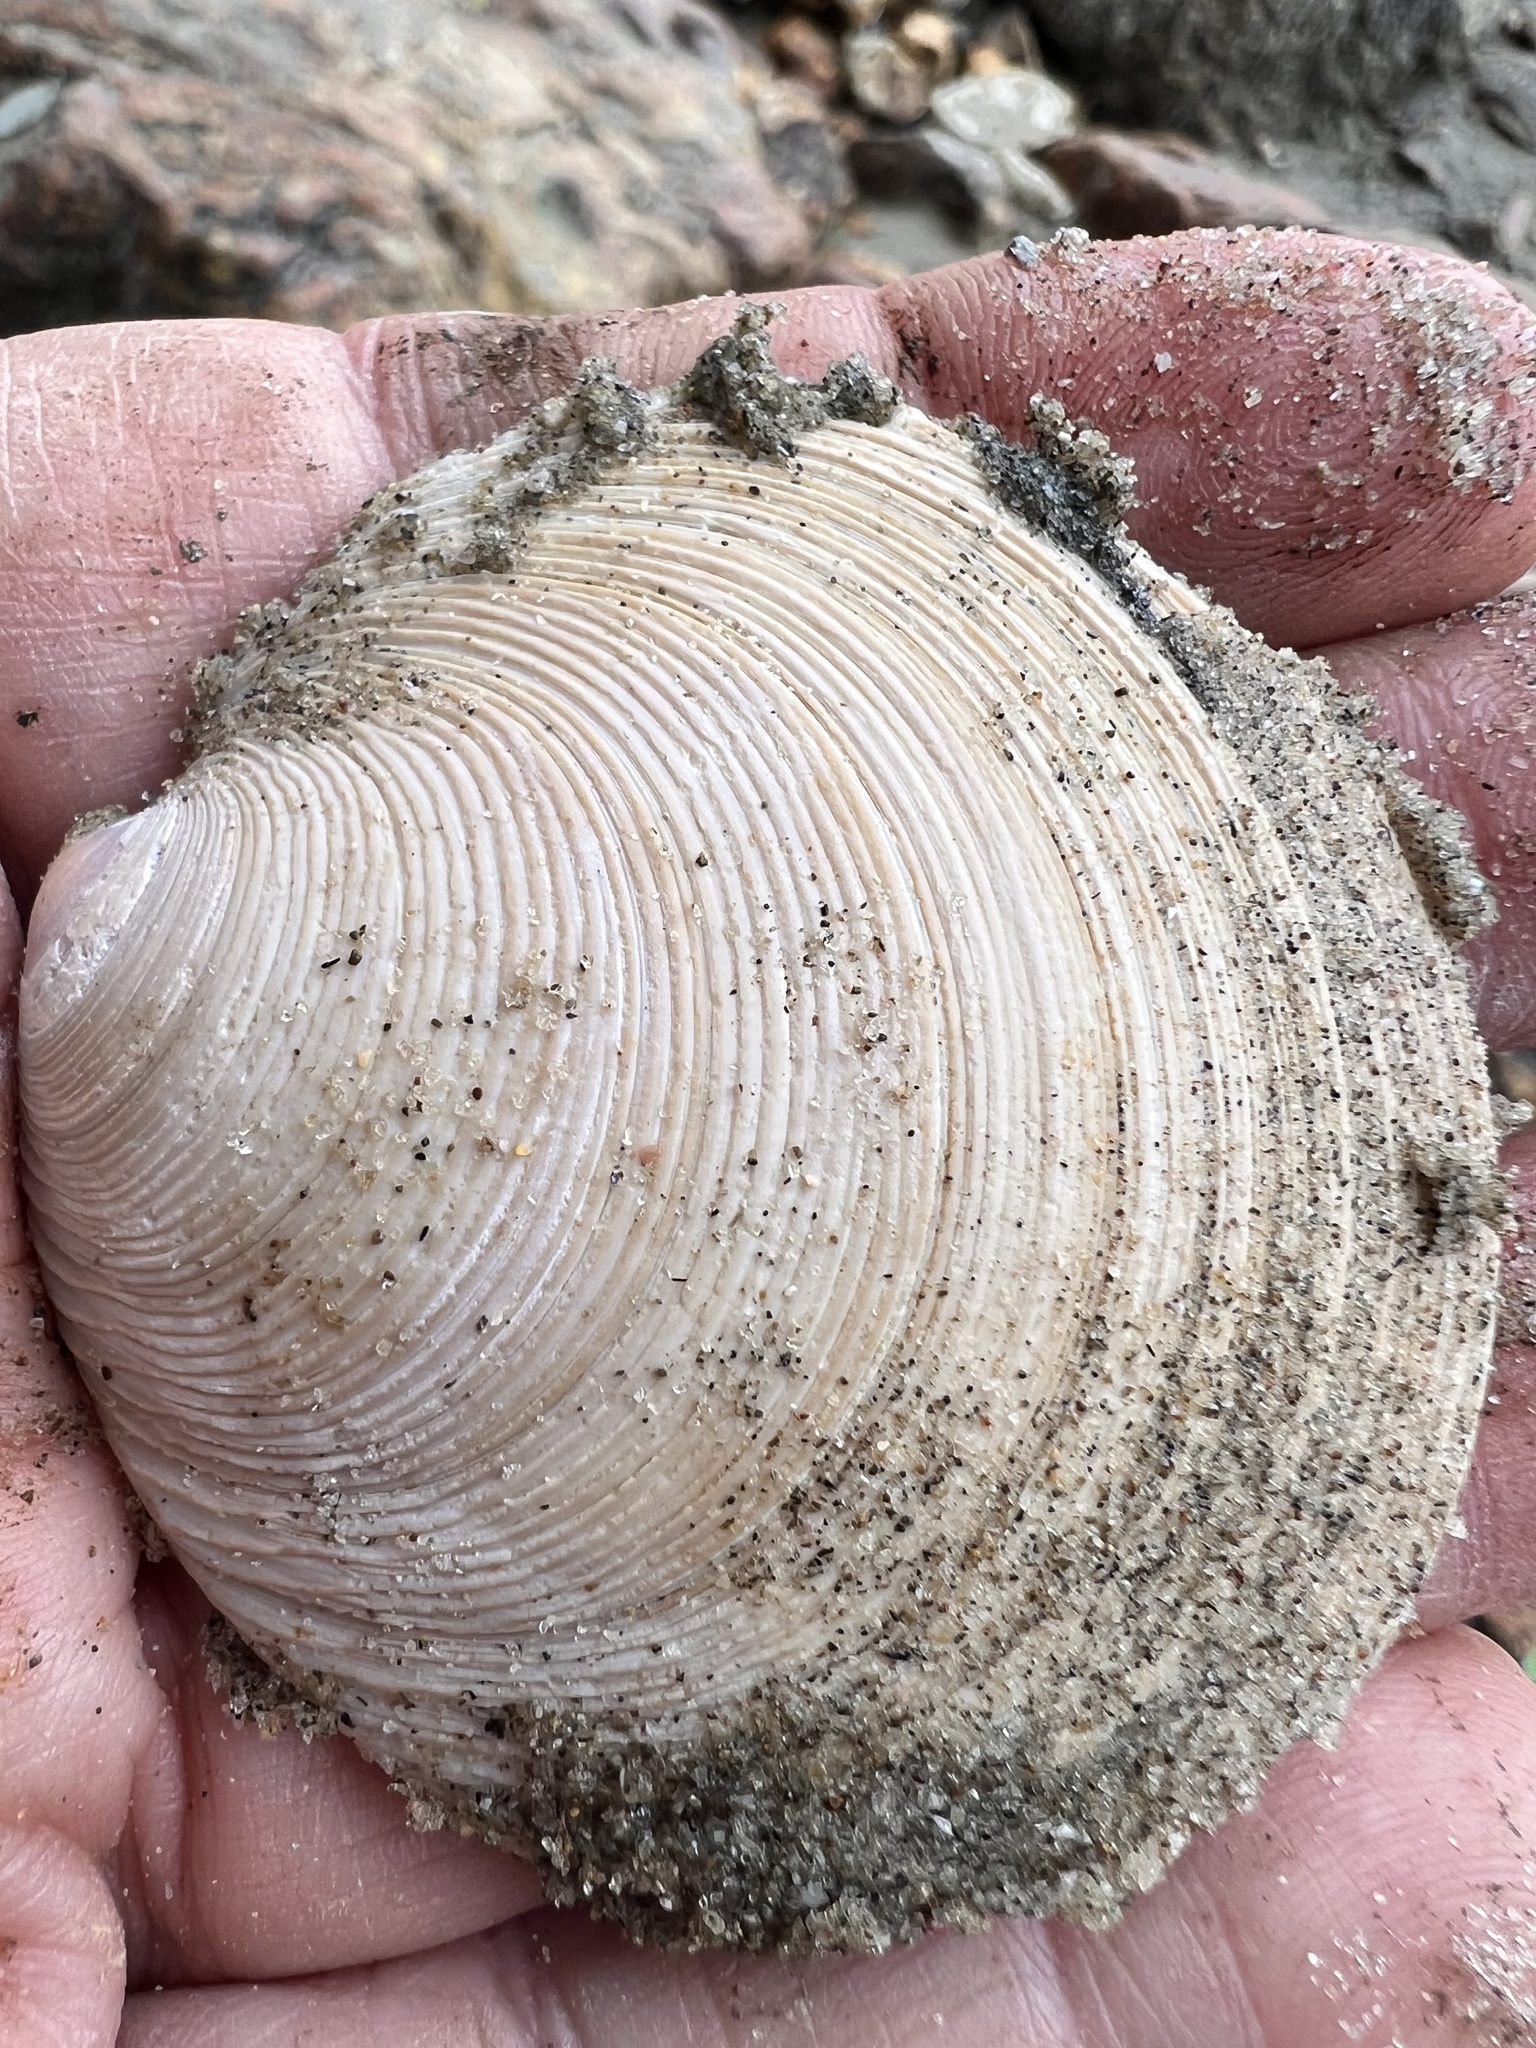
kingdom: Animalia
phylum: Mollusca
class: Bivalvia
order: Venerida
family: Veneridae
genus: Dosinia
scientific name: Dosinia anus
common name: Old-woman dosinia
